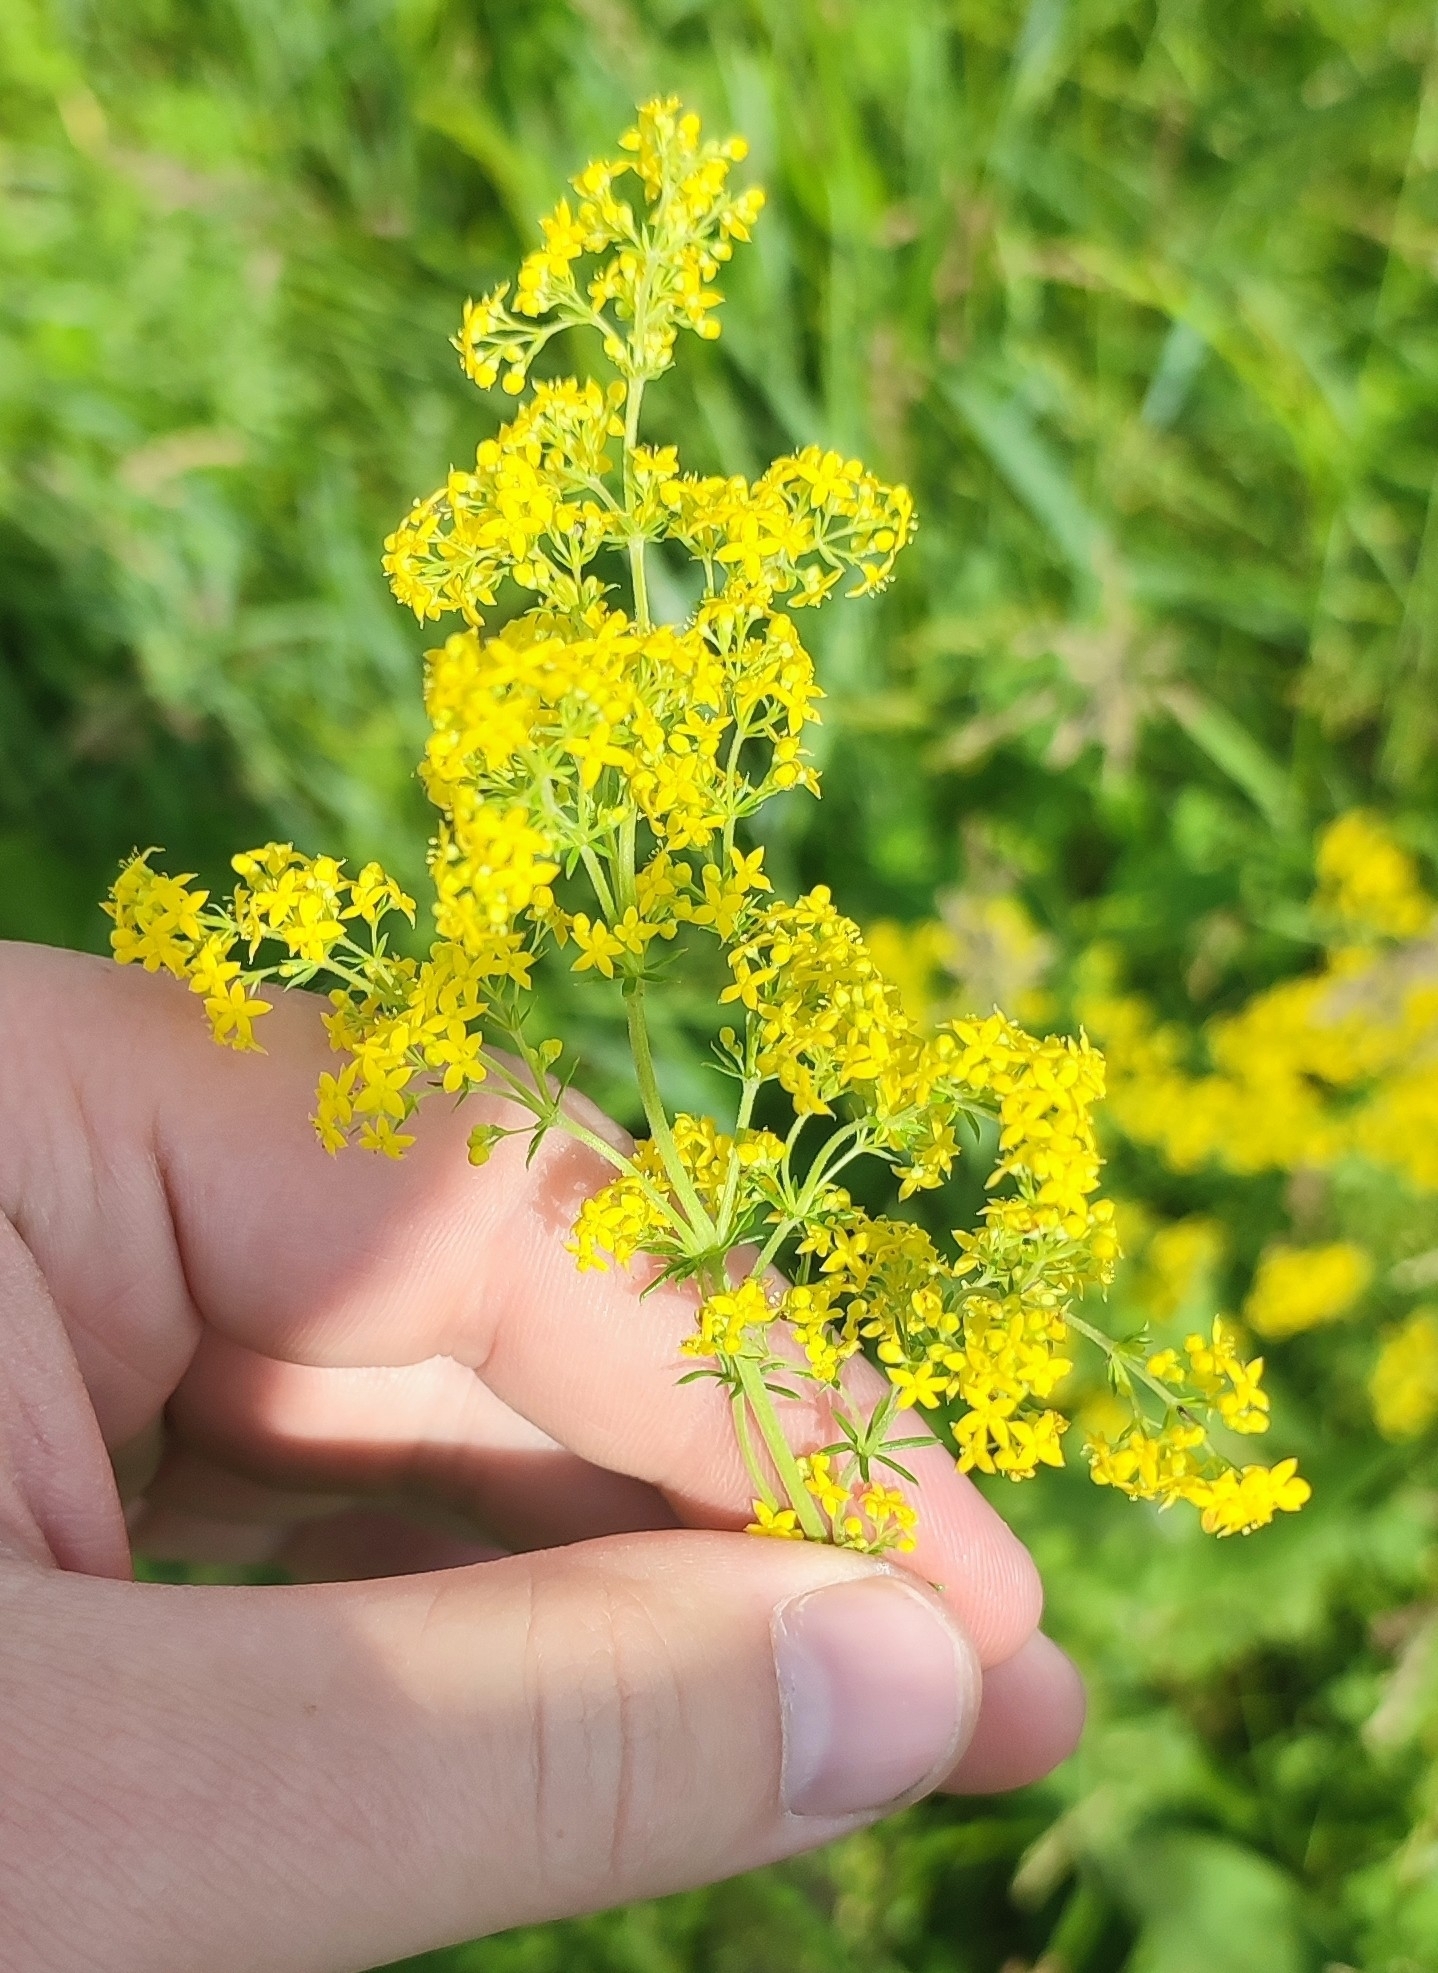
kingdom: Plantae
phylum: Tracheophyta
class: Magnoliopsida
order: Gentianales
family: Rubiaceae
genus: Galium
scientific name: Galium verum
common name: Lady's bedstraw
